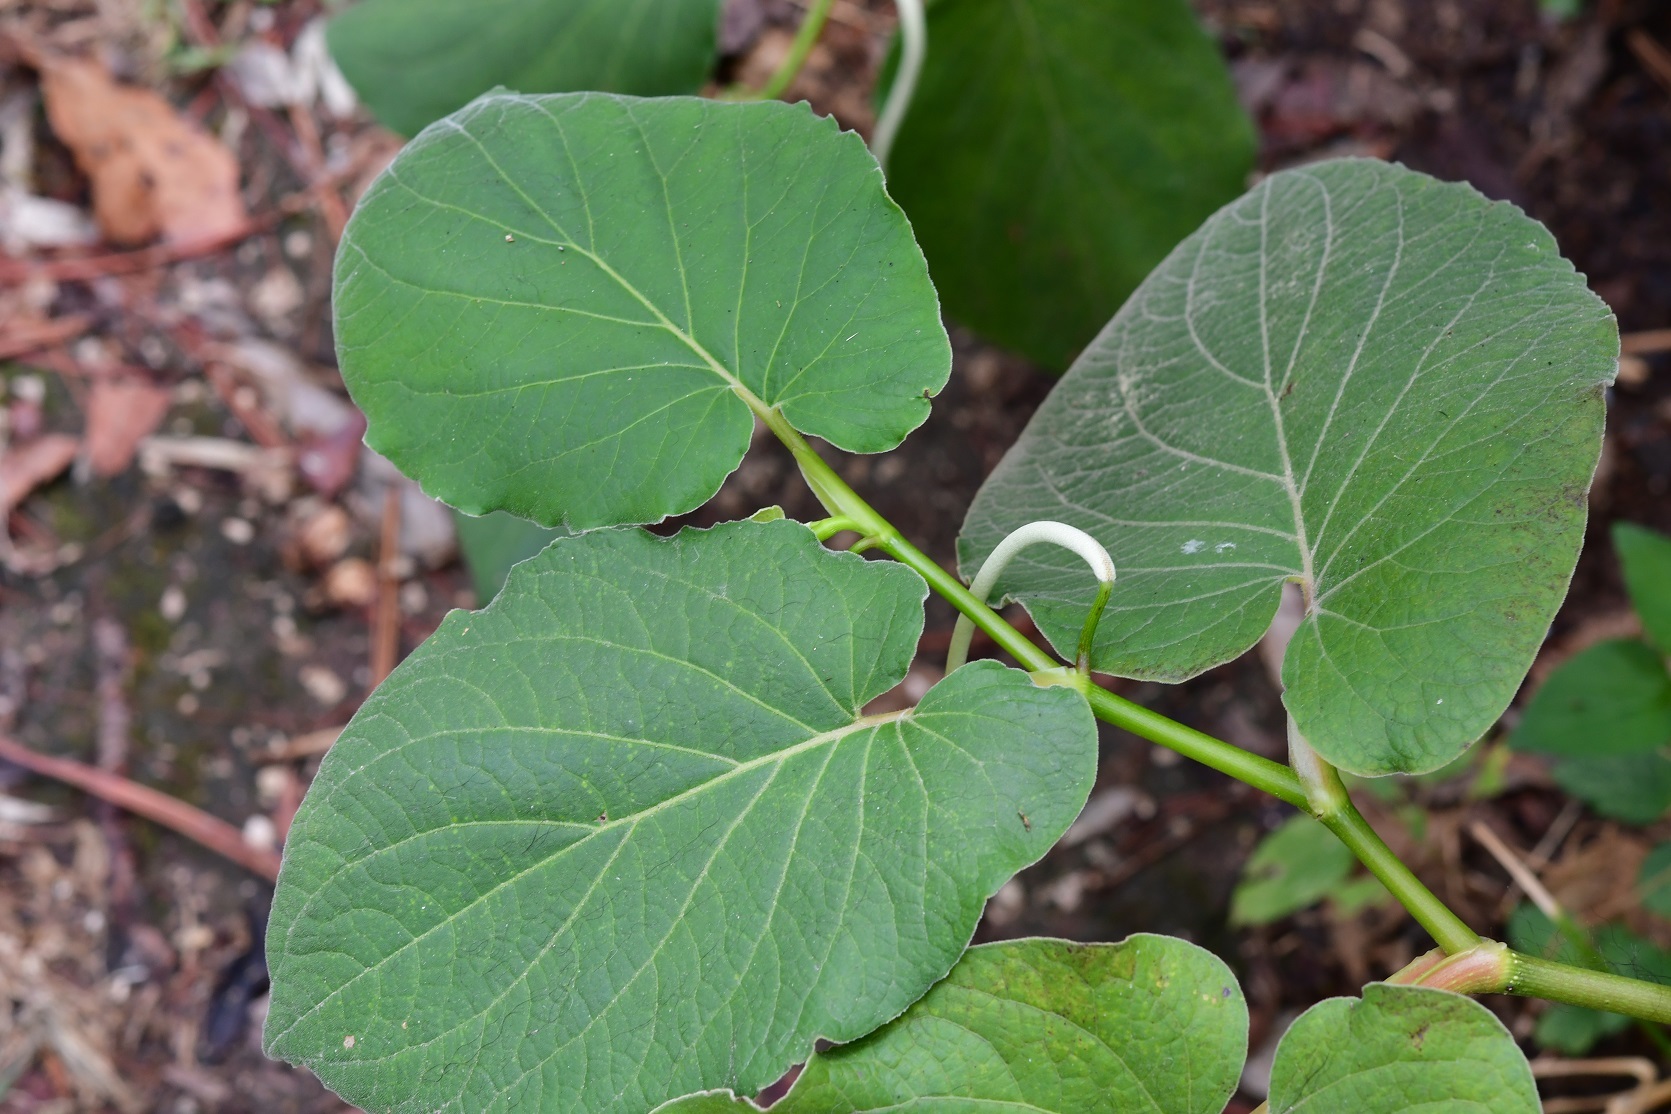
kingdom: Plantae
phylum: Tracheophyta
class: Magnoliopsida
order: Piperales
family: Piperaceae
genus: Piper
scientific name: Piper auritum
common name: Vera cruz pepper
